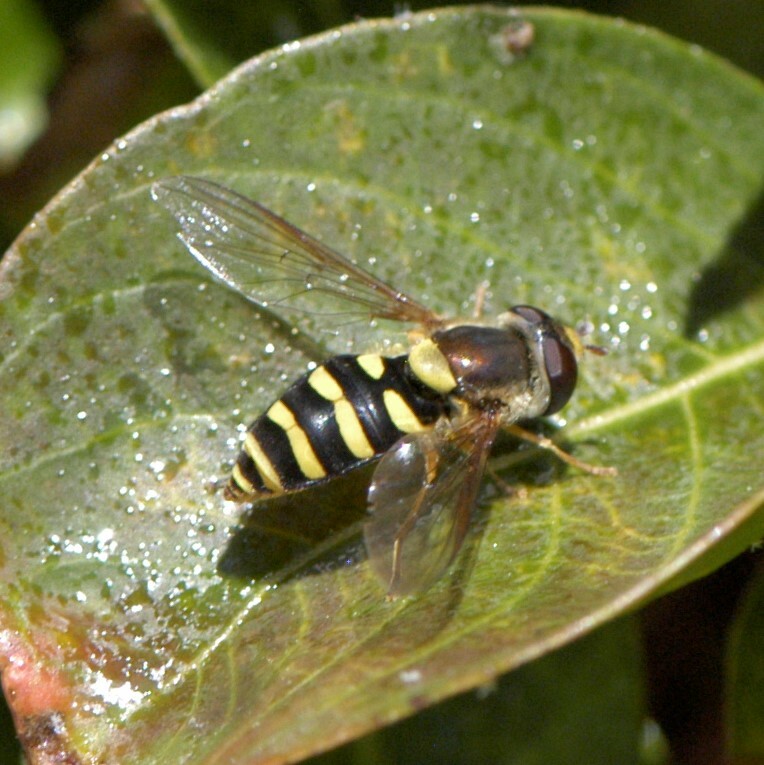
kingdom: Animalia
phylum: Arthropoda
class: Insecta
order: Diptera
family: Syrphidae
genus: Syrphus
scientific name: Syrphus opinator
